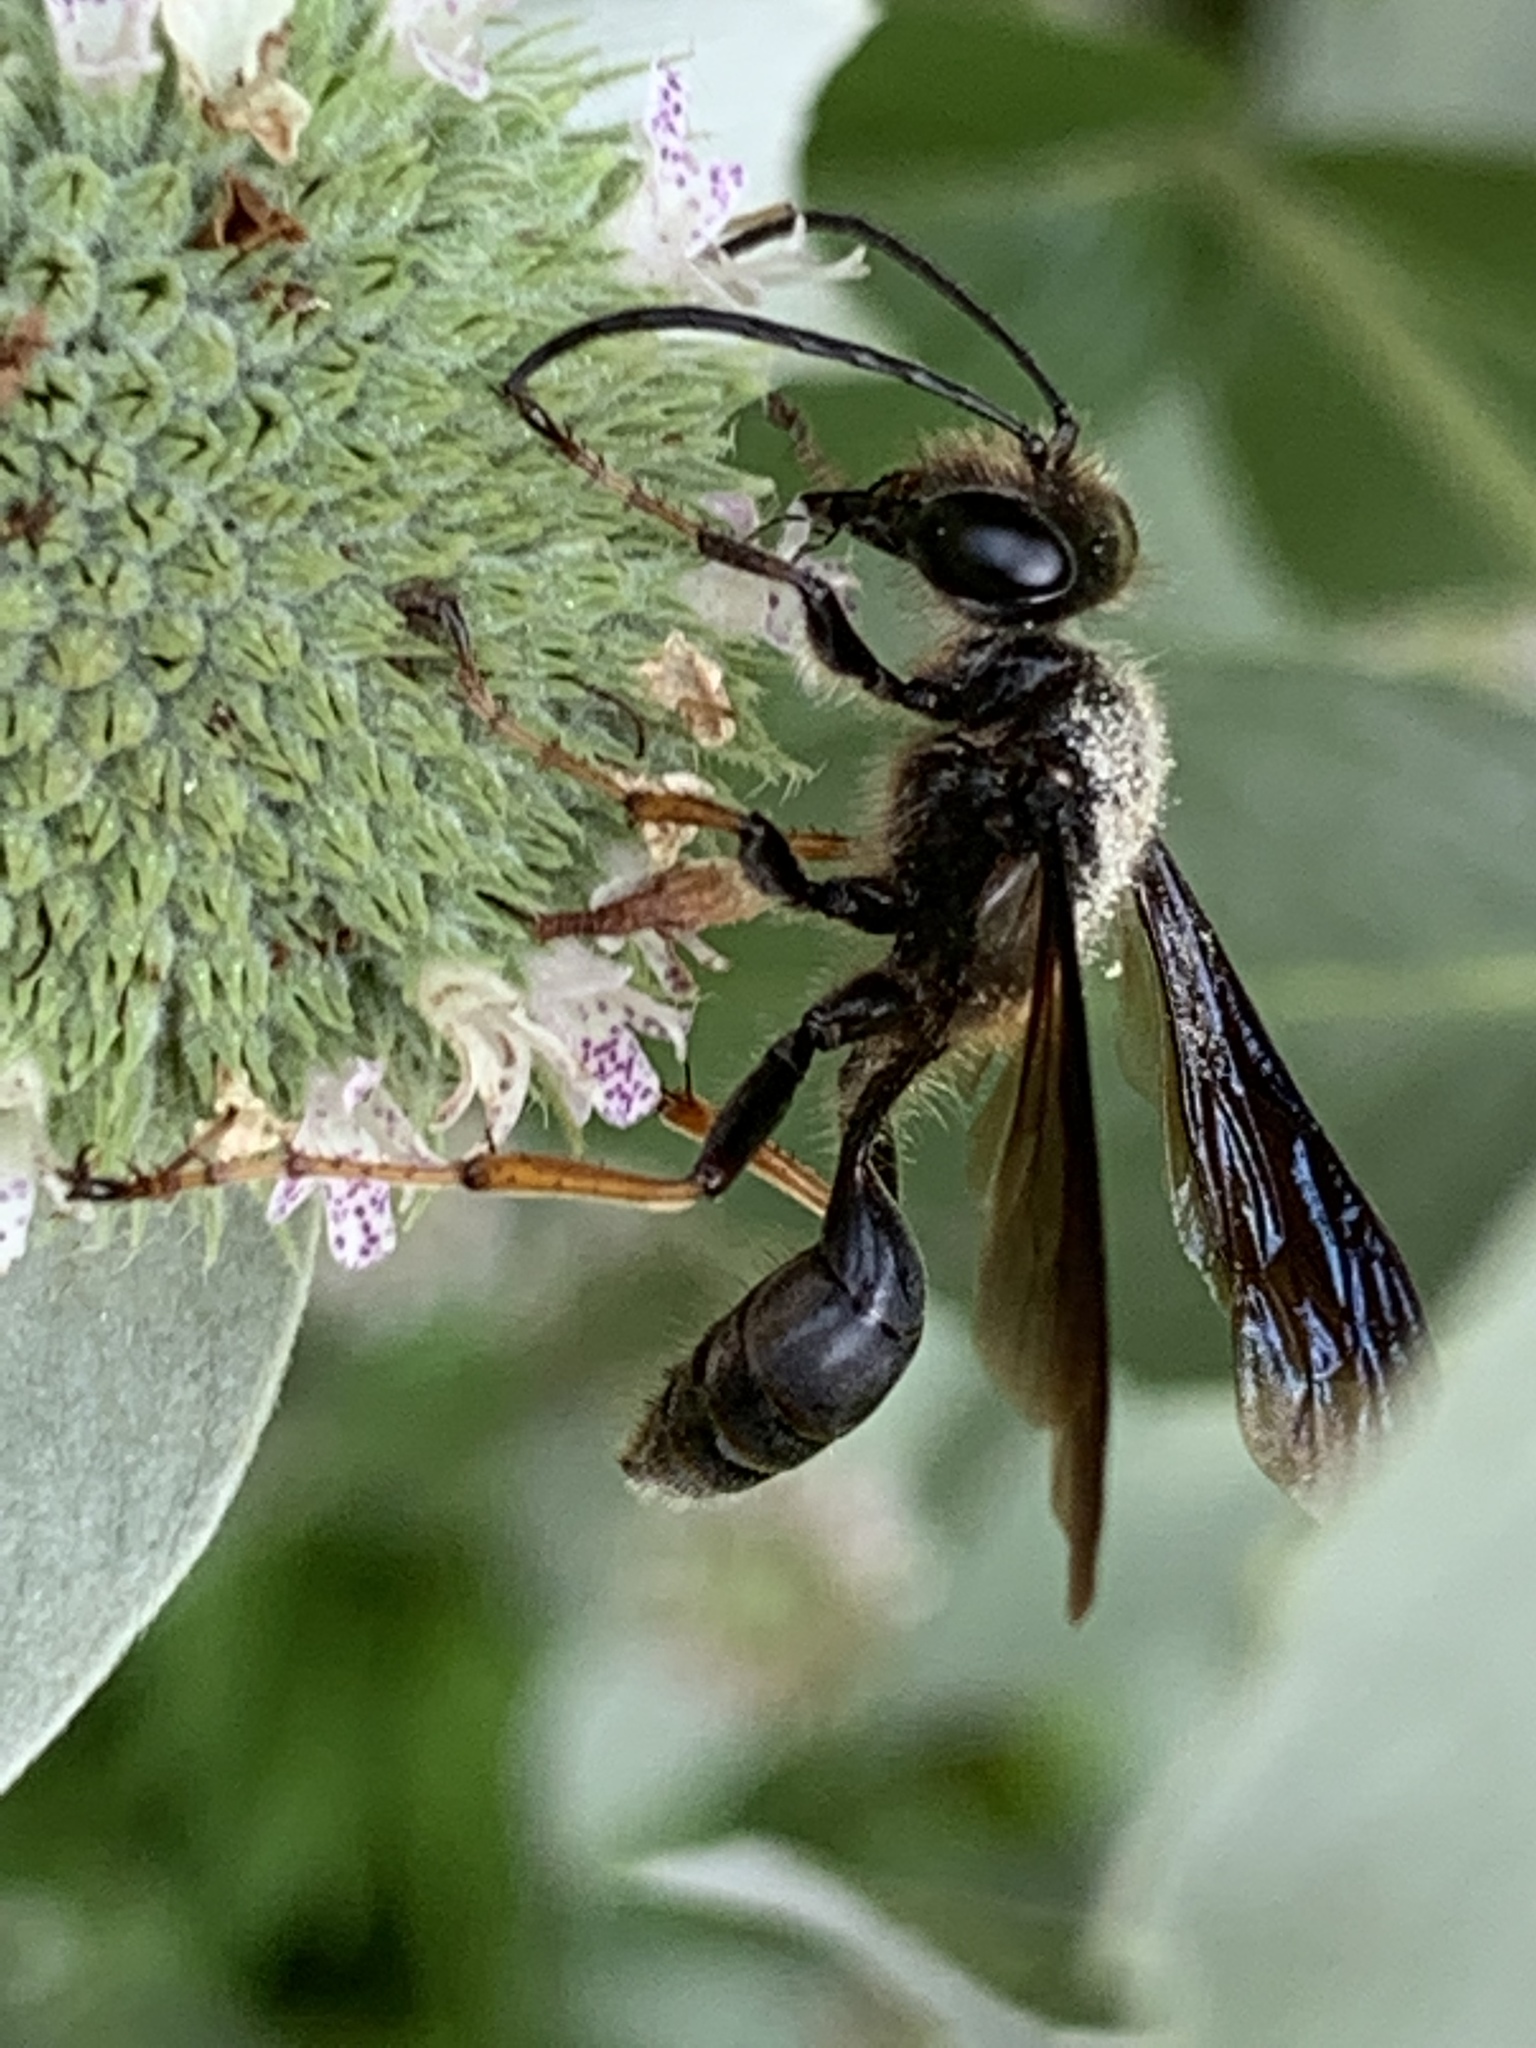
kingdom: Animalia
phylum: Arthropoda
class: Insecta
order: Hymenoptera
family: Sphecidae
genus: Isodontia
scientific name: Isodontia auripes
